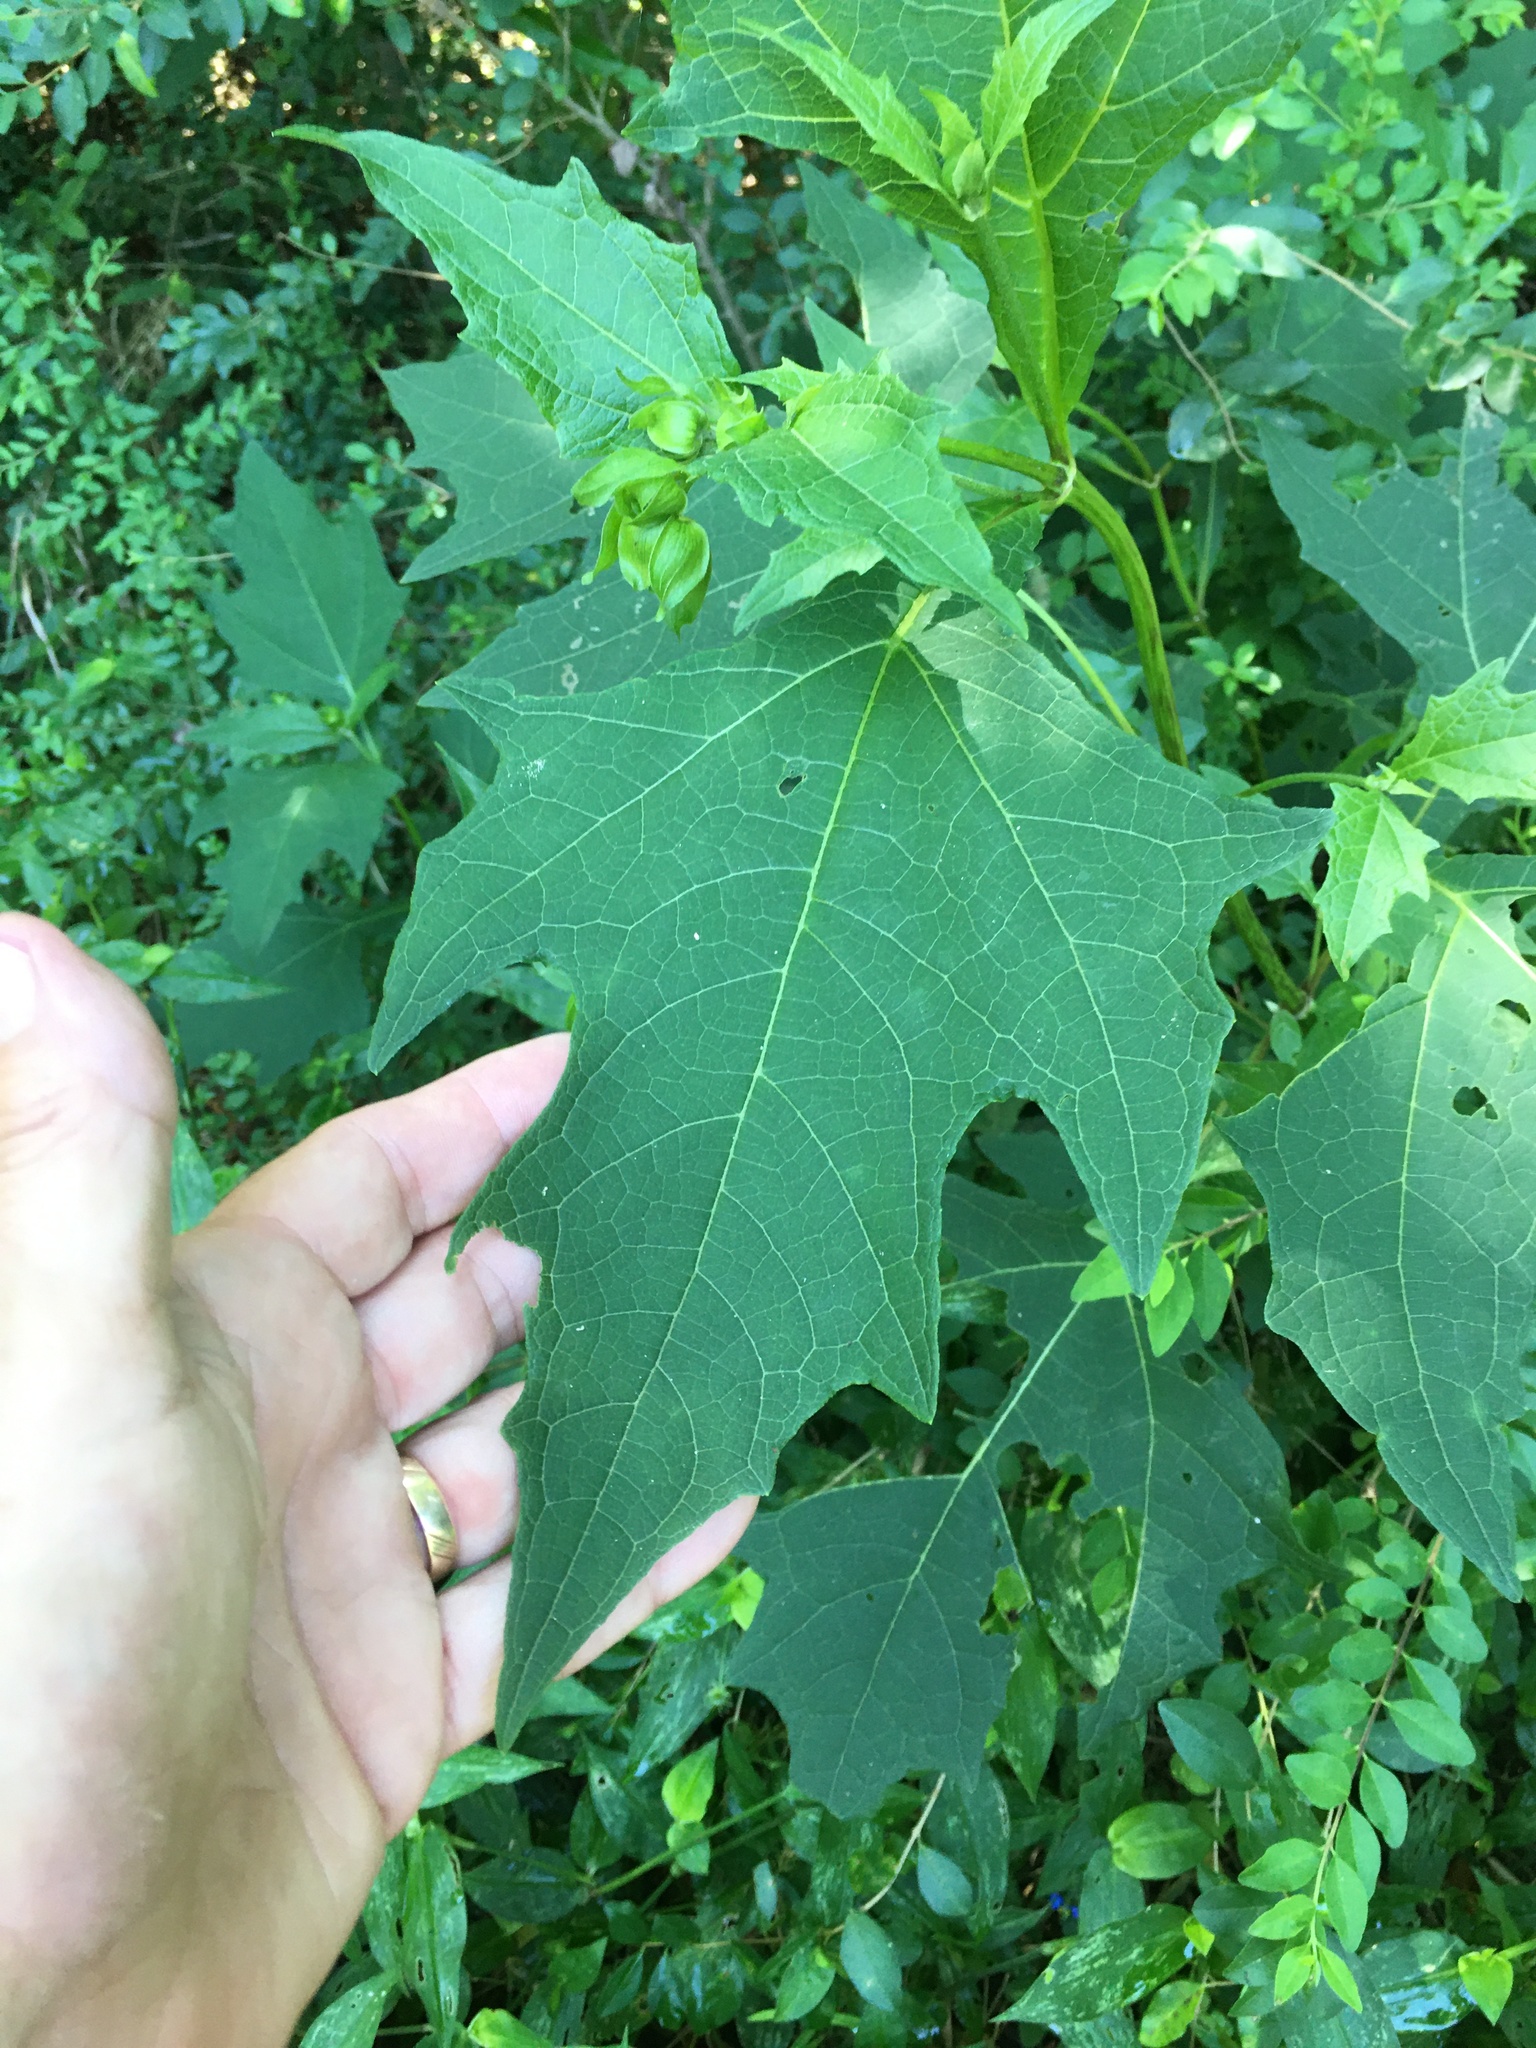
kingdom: Plantae
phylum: Tracheophyta
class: Magnoliopsida
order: Asterales
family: Asteraceae
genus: Smallanthus
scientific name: Smallanthus uvedalia
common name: Bear's-foot
